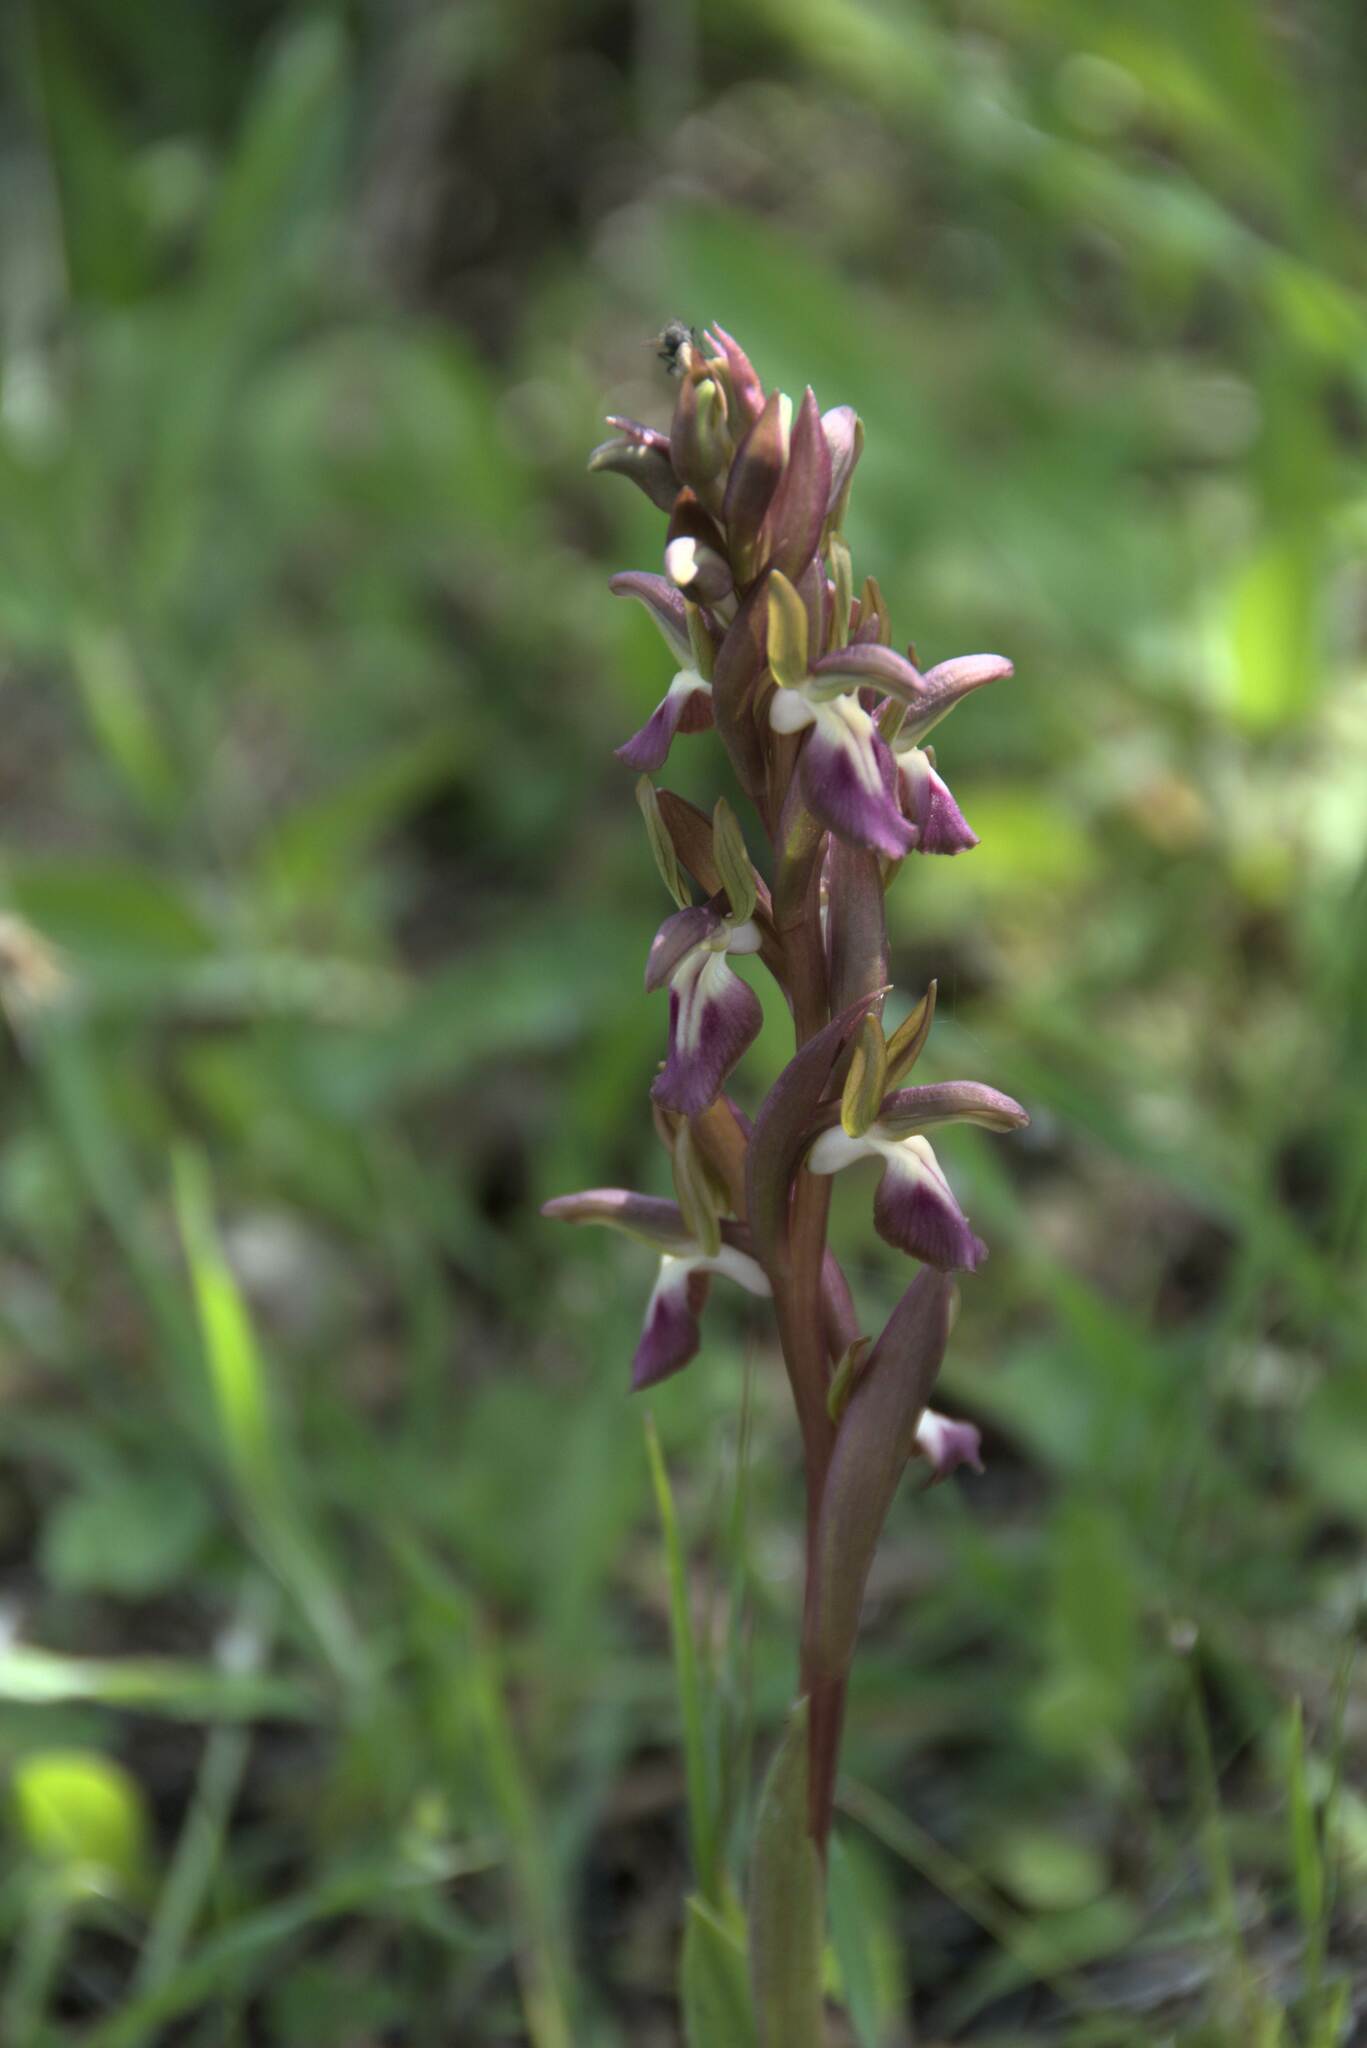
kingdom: Plantae
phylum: Tracheophyta
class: Liliopsida
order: Asparagales
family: Orchidaceae
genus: Anacamptis
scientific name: Anacamptis collina
